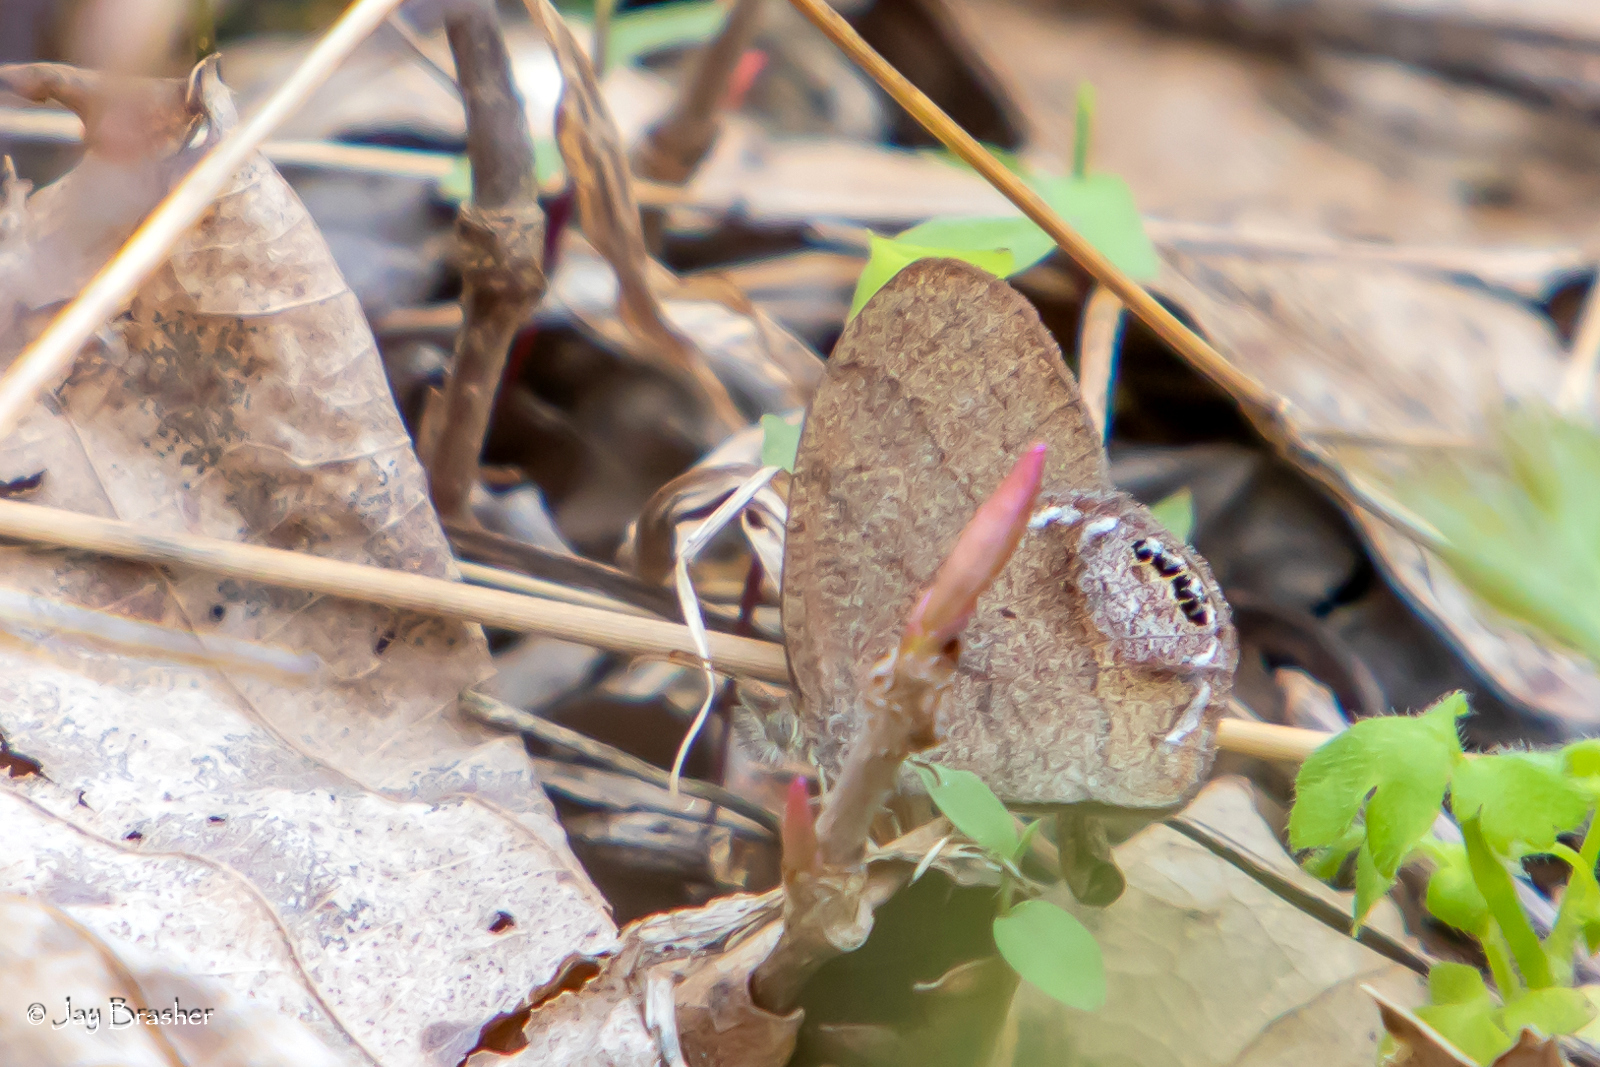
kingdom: Animalia
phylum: Arthropoda
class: Insecta
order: Lepidoptera
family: Nymphalidae
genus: Euptychia
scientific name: Euptychia cornelius
